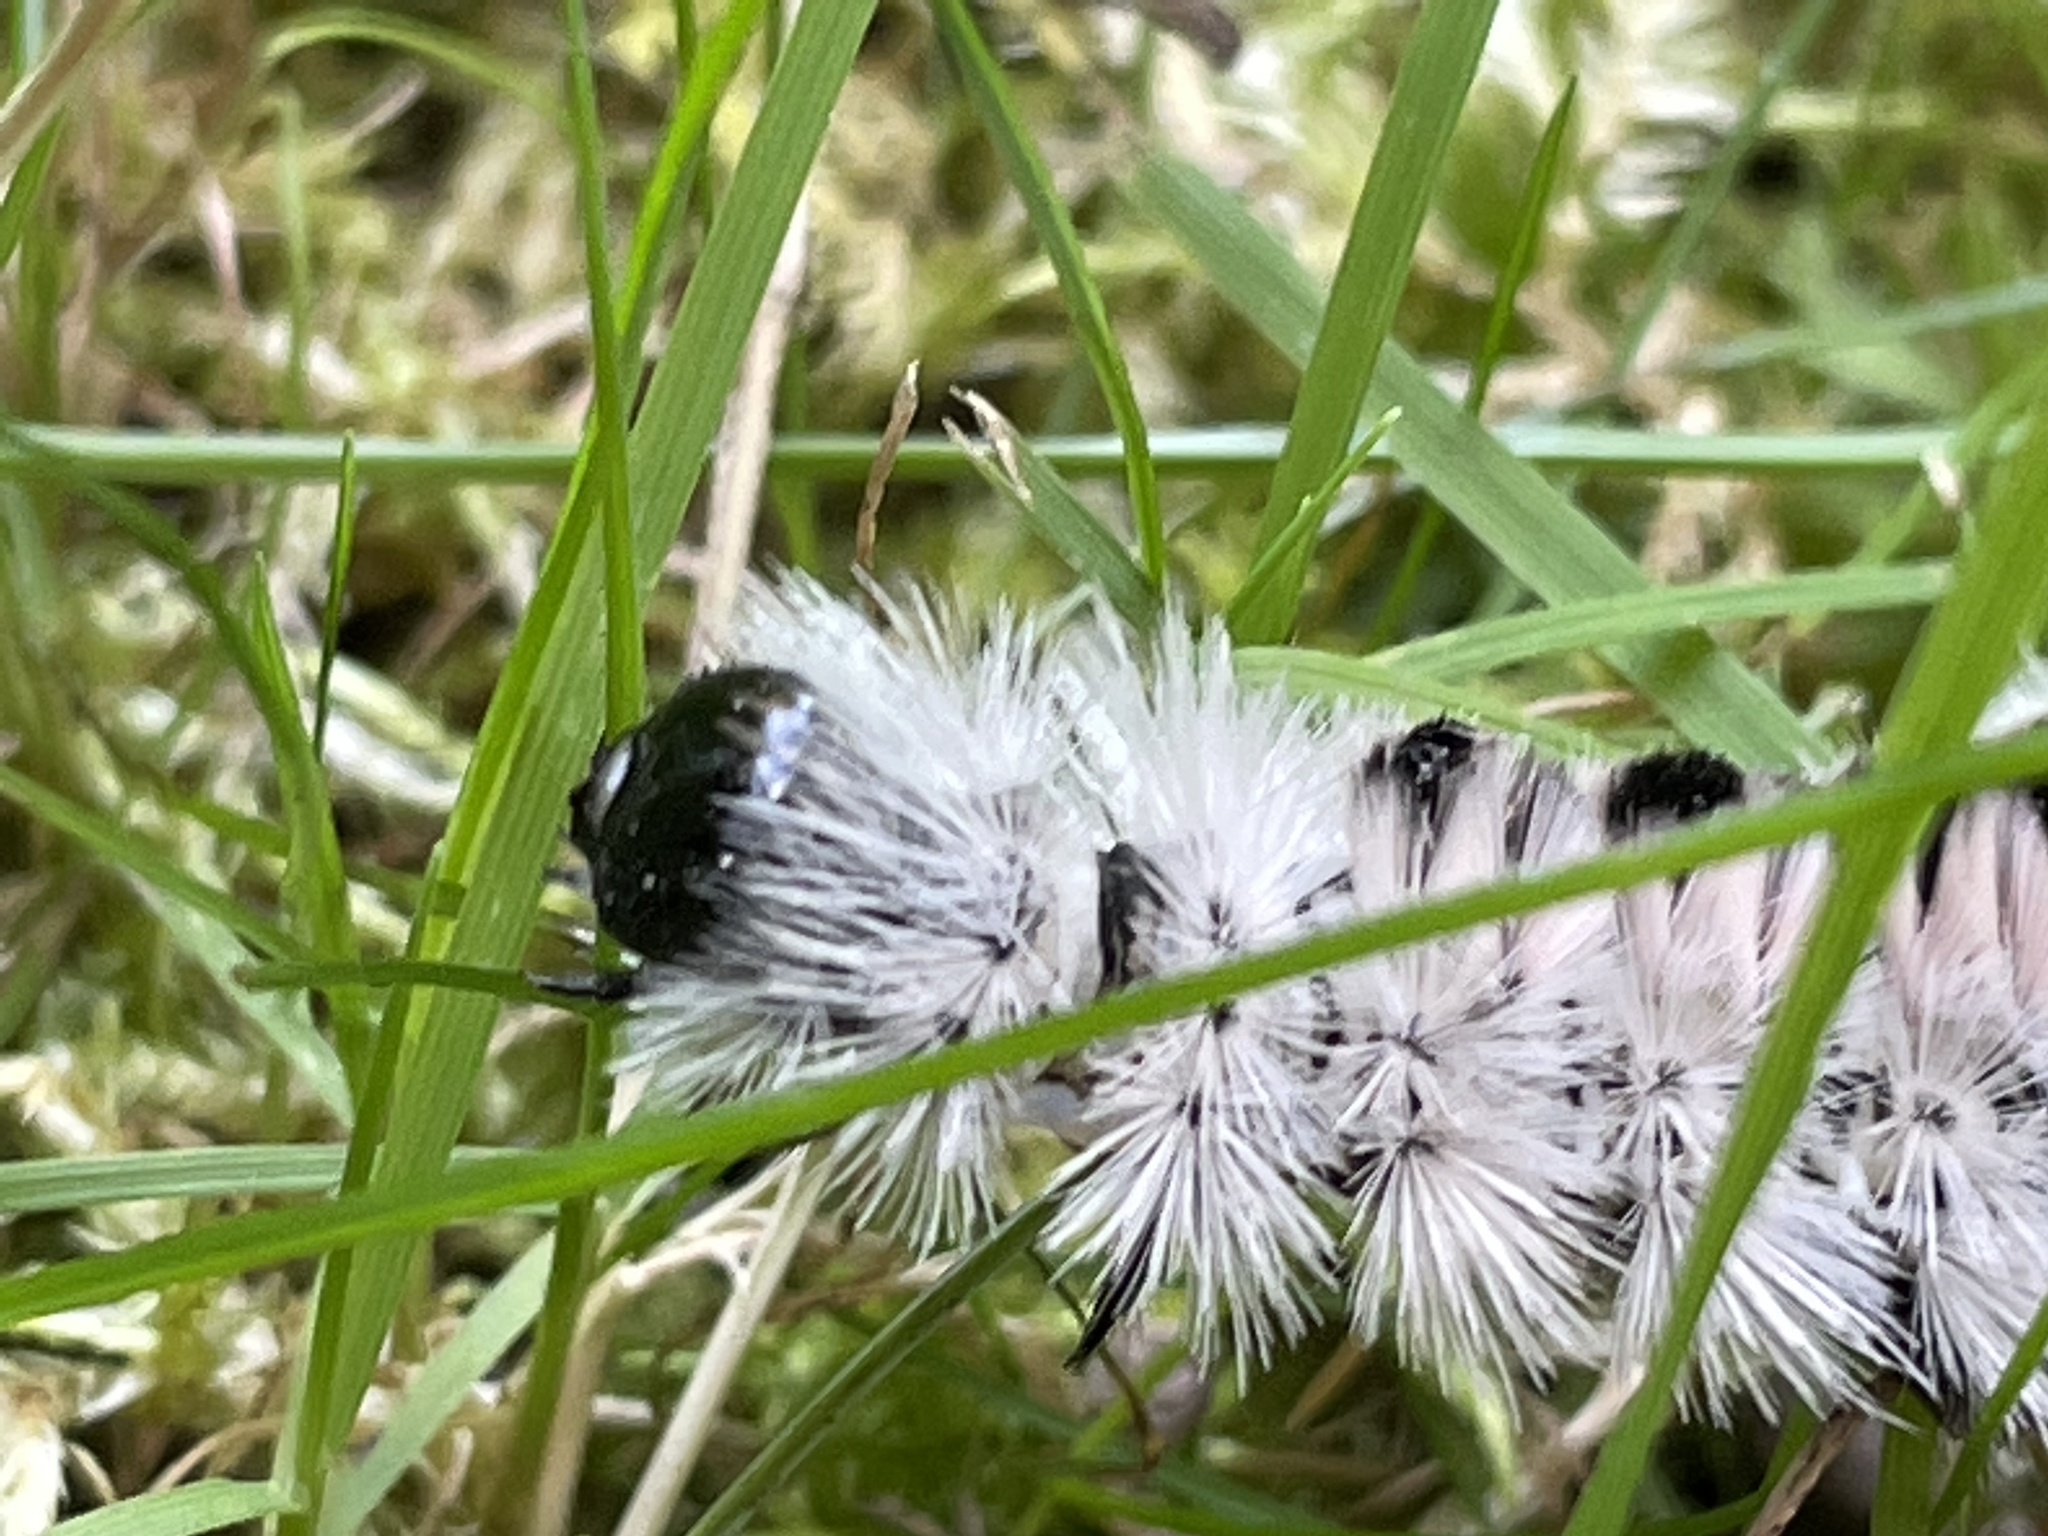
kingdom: Animalia
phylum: Arthropoda
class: Insecta
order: Lepidoptera
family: Erebidae
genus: Lophocampa
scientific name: Lophocampa caryae
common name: Hickory tussock moth
